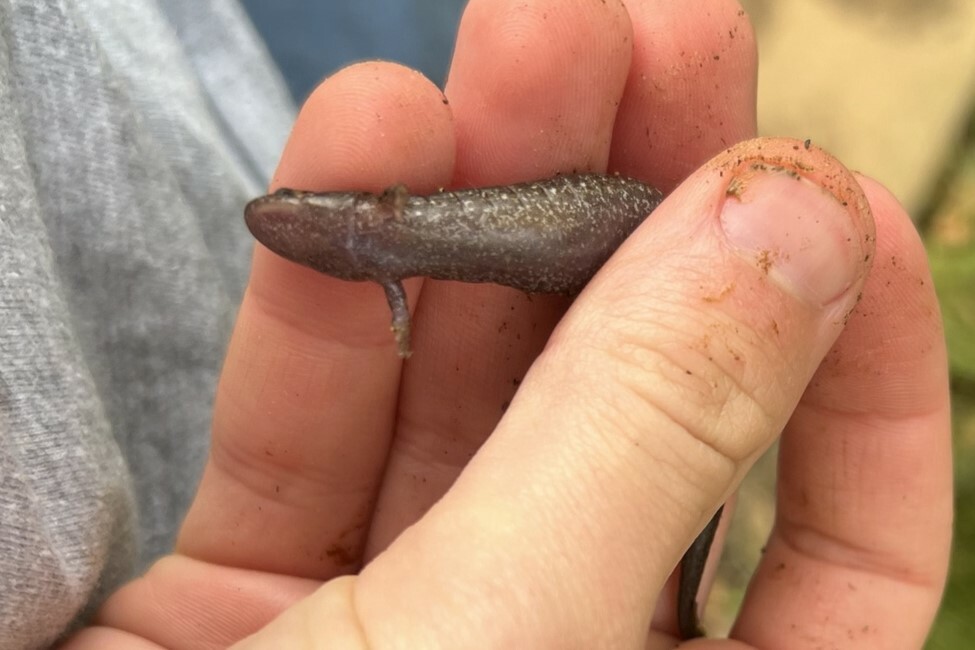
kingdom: Animalia
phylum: Chordata
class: Amphibia
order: Caudata
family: Plethodontidae
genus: Desmognathus
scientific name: Desmognathus conanti
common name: Spotted dusky salamander
